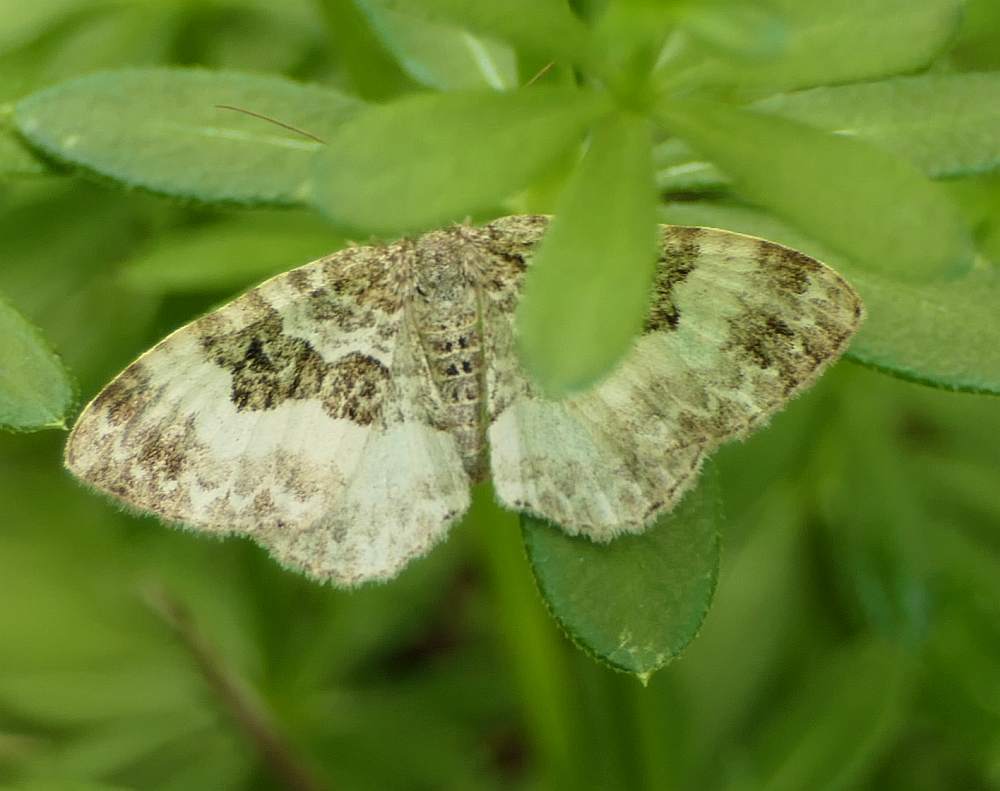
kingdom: Animalia
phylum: Arthropoda
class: Insecta
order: Lepidoptera
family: Geometridae
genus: Epirrhoe
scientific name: Epirrhoe alternata
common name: Common carpet
